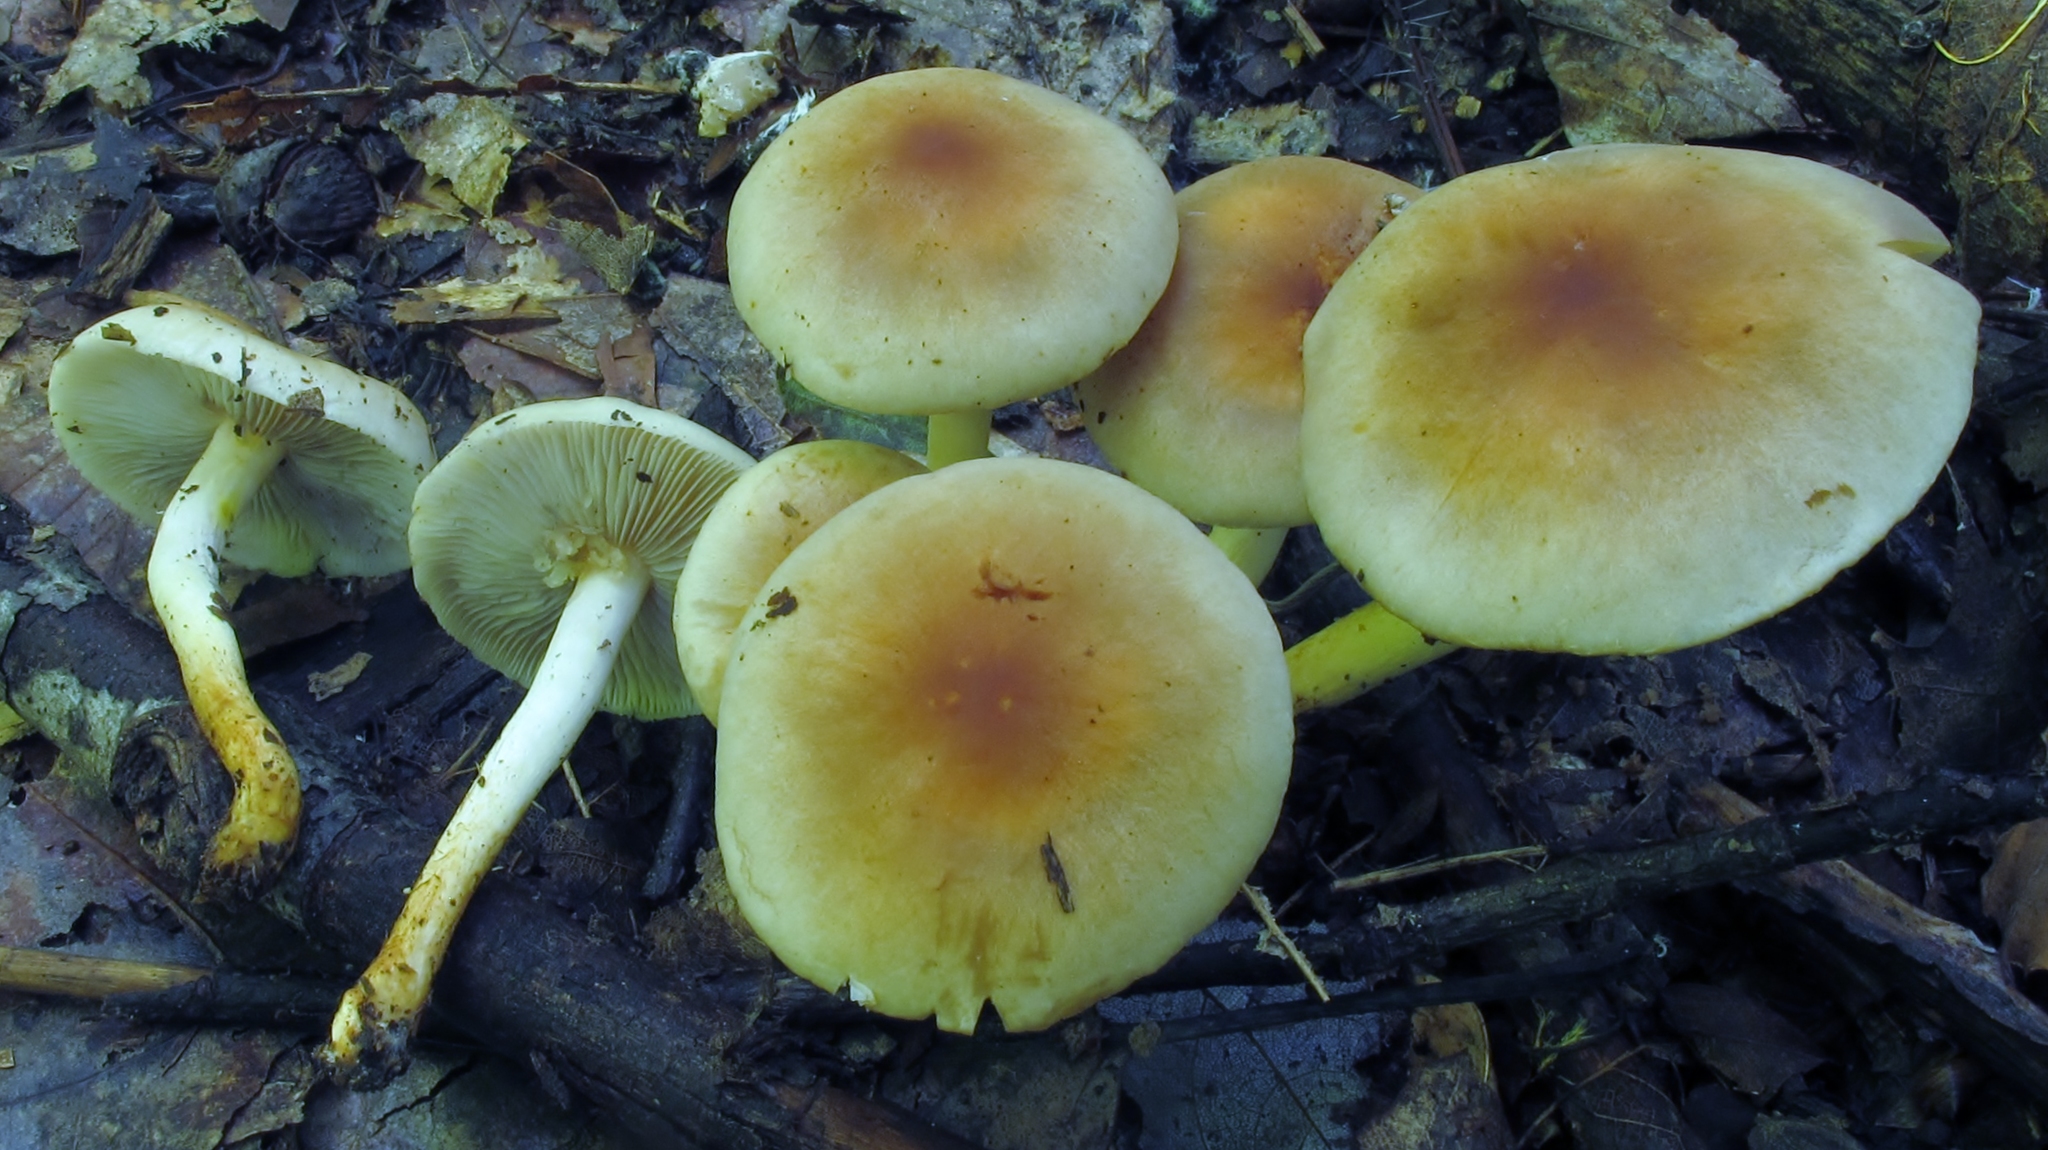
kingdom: Fungi
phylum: Basidiomycota
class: Agaricomycetes
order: Agaricales
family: Strophariaceae
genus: Hypholoma
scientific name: Hypholoma lateritium
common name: Brick caps
